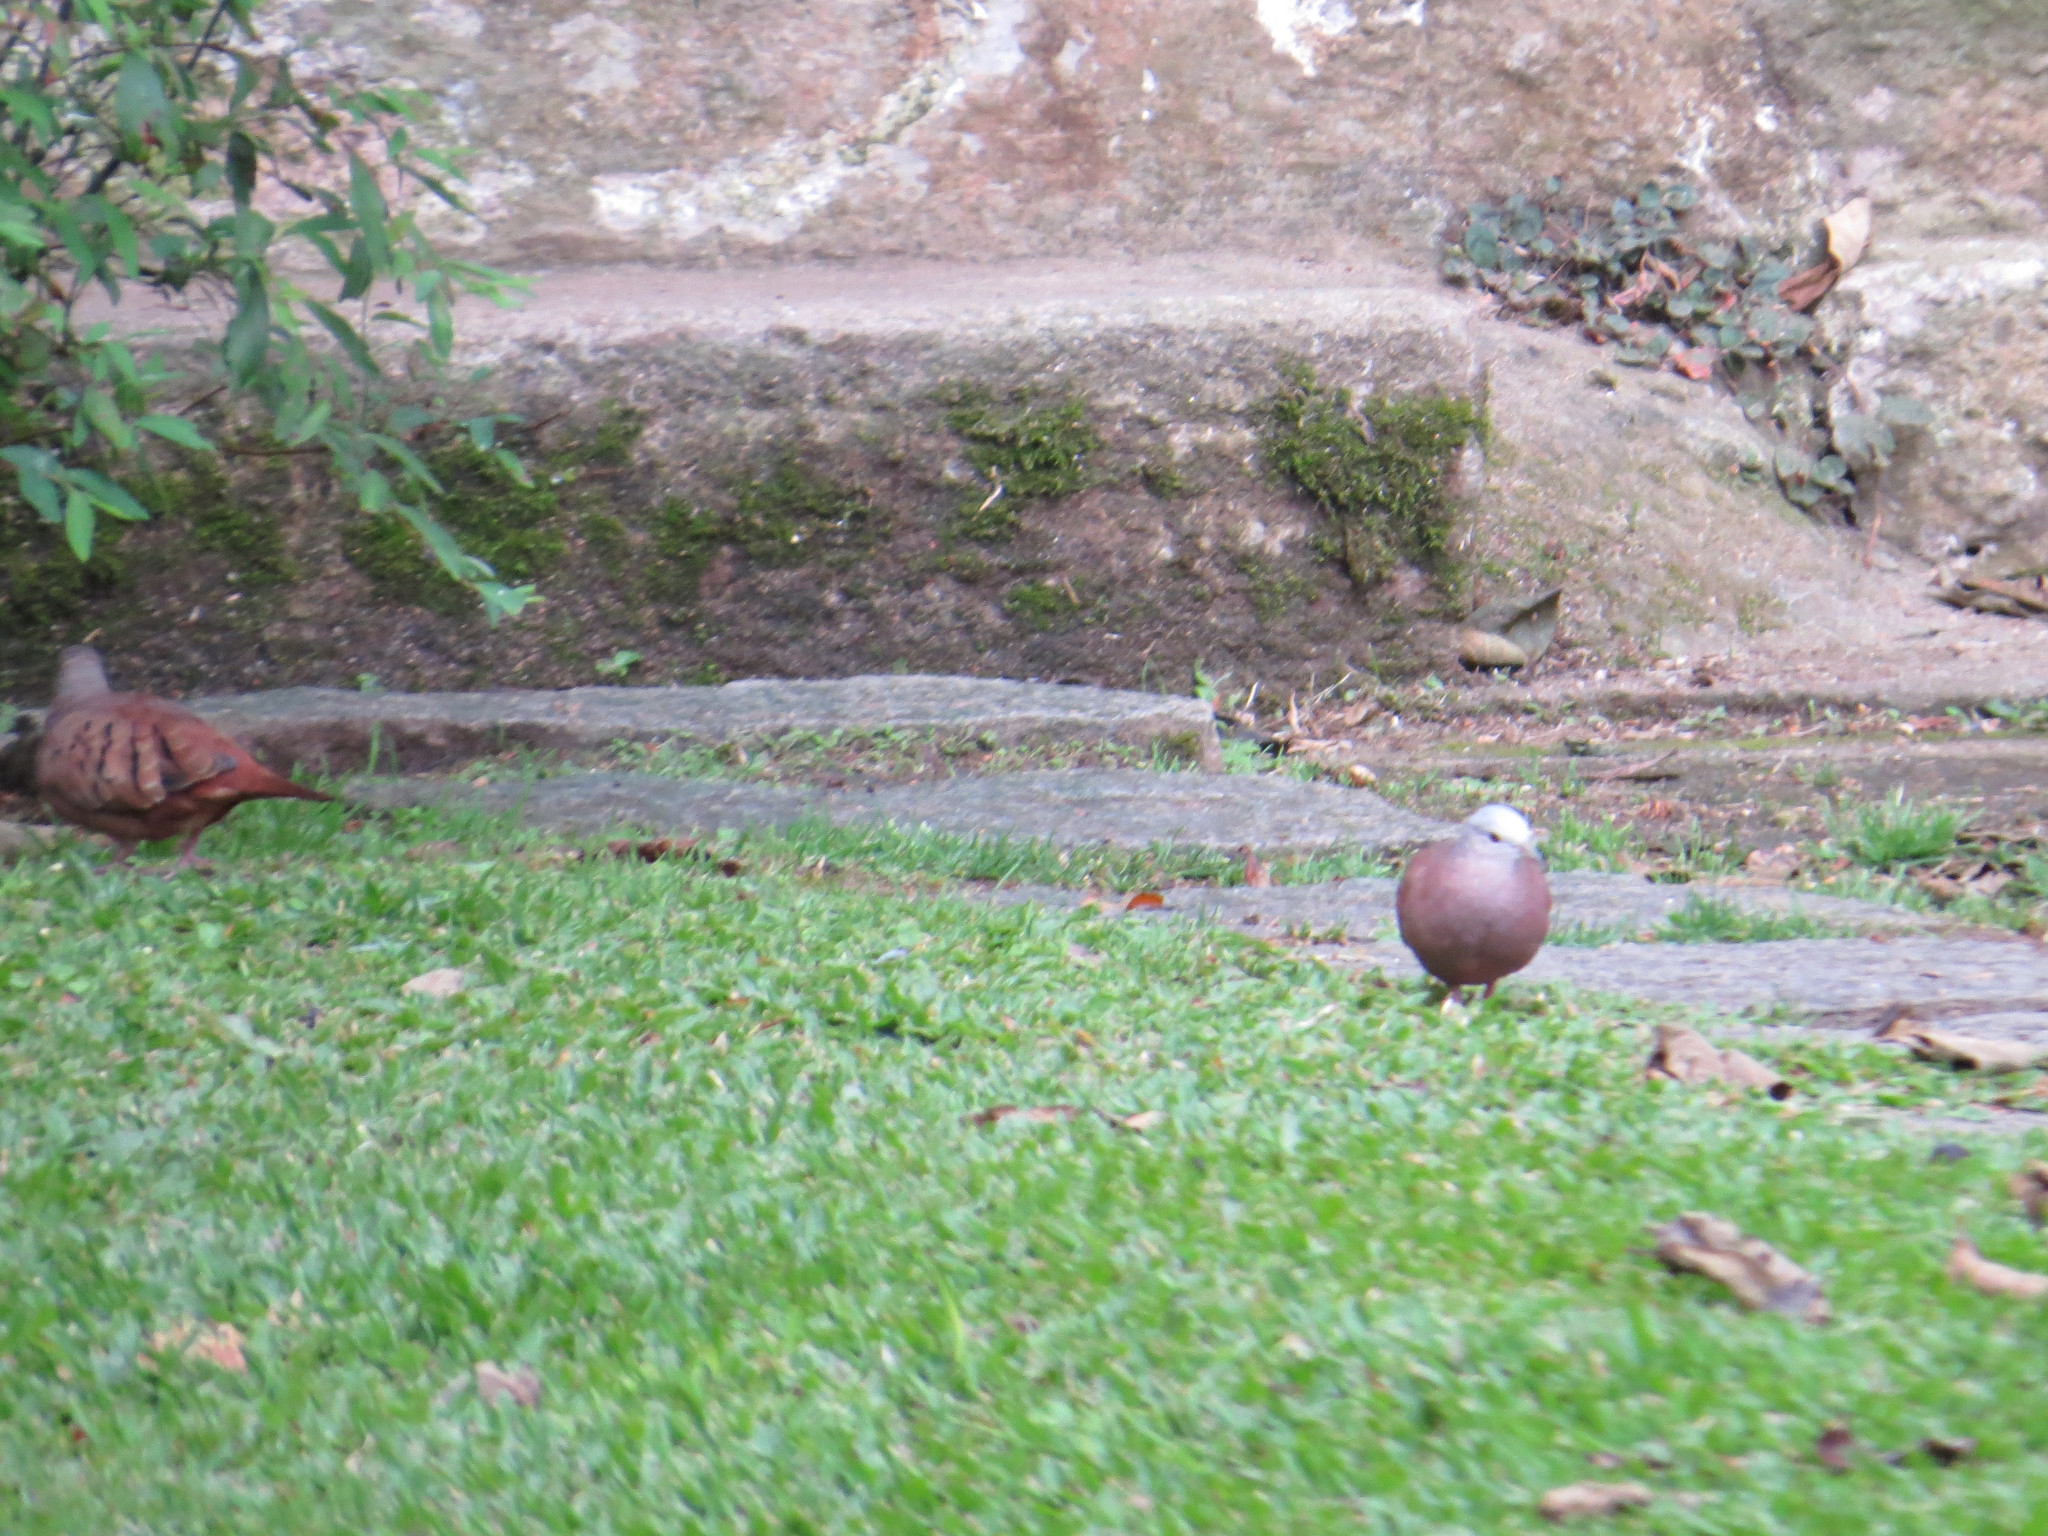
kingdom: Animalia
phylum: Chordata
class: Aves
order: Columbiformes
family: Columbidae
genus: Columbina
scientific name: Columbina talpacoti
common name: Ruddy ground dove
